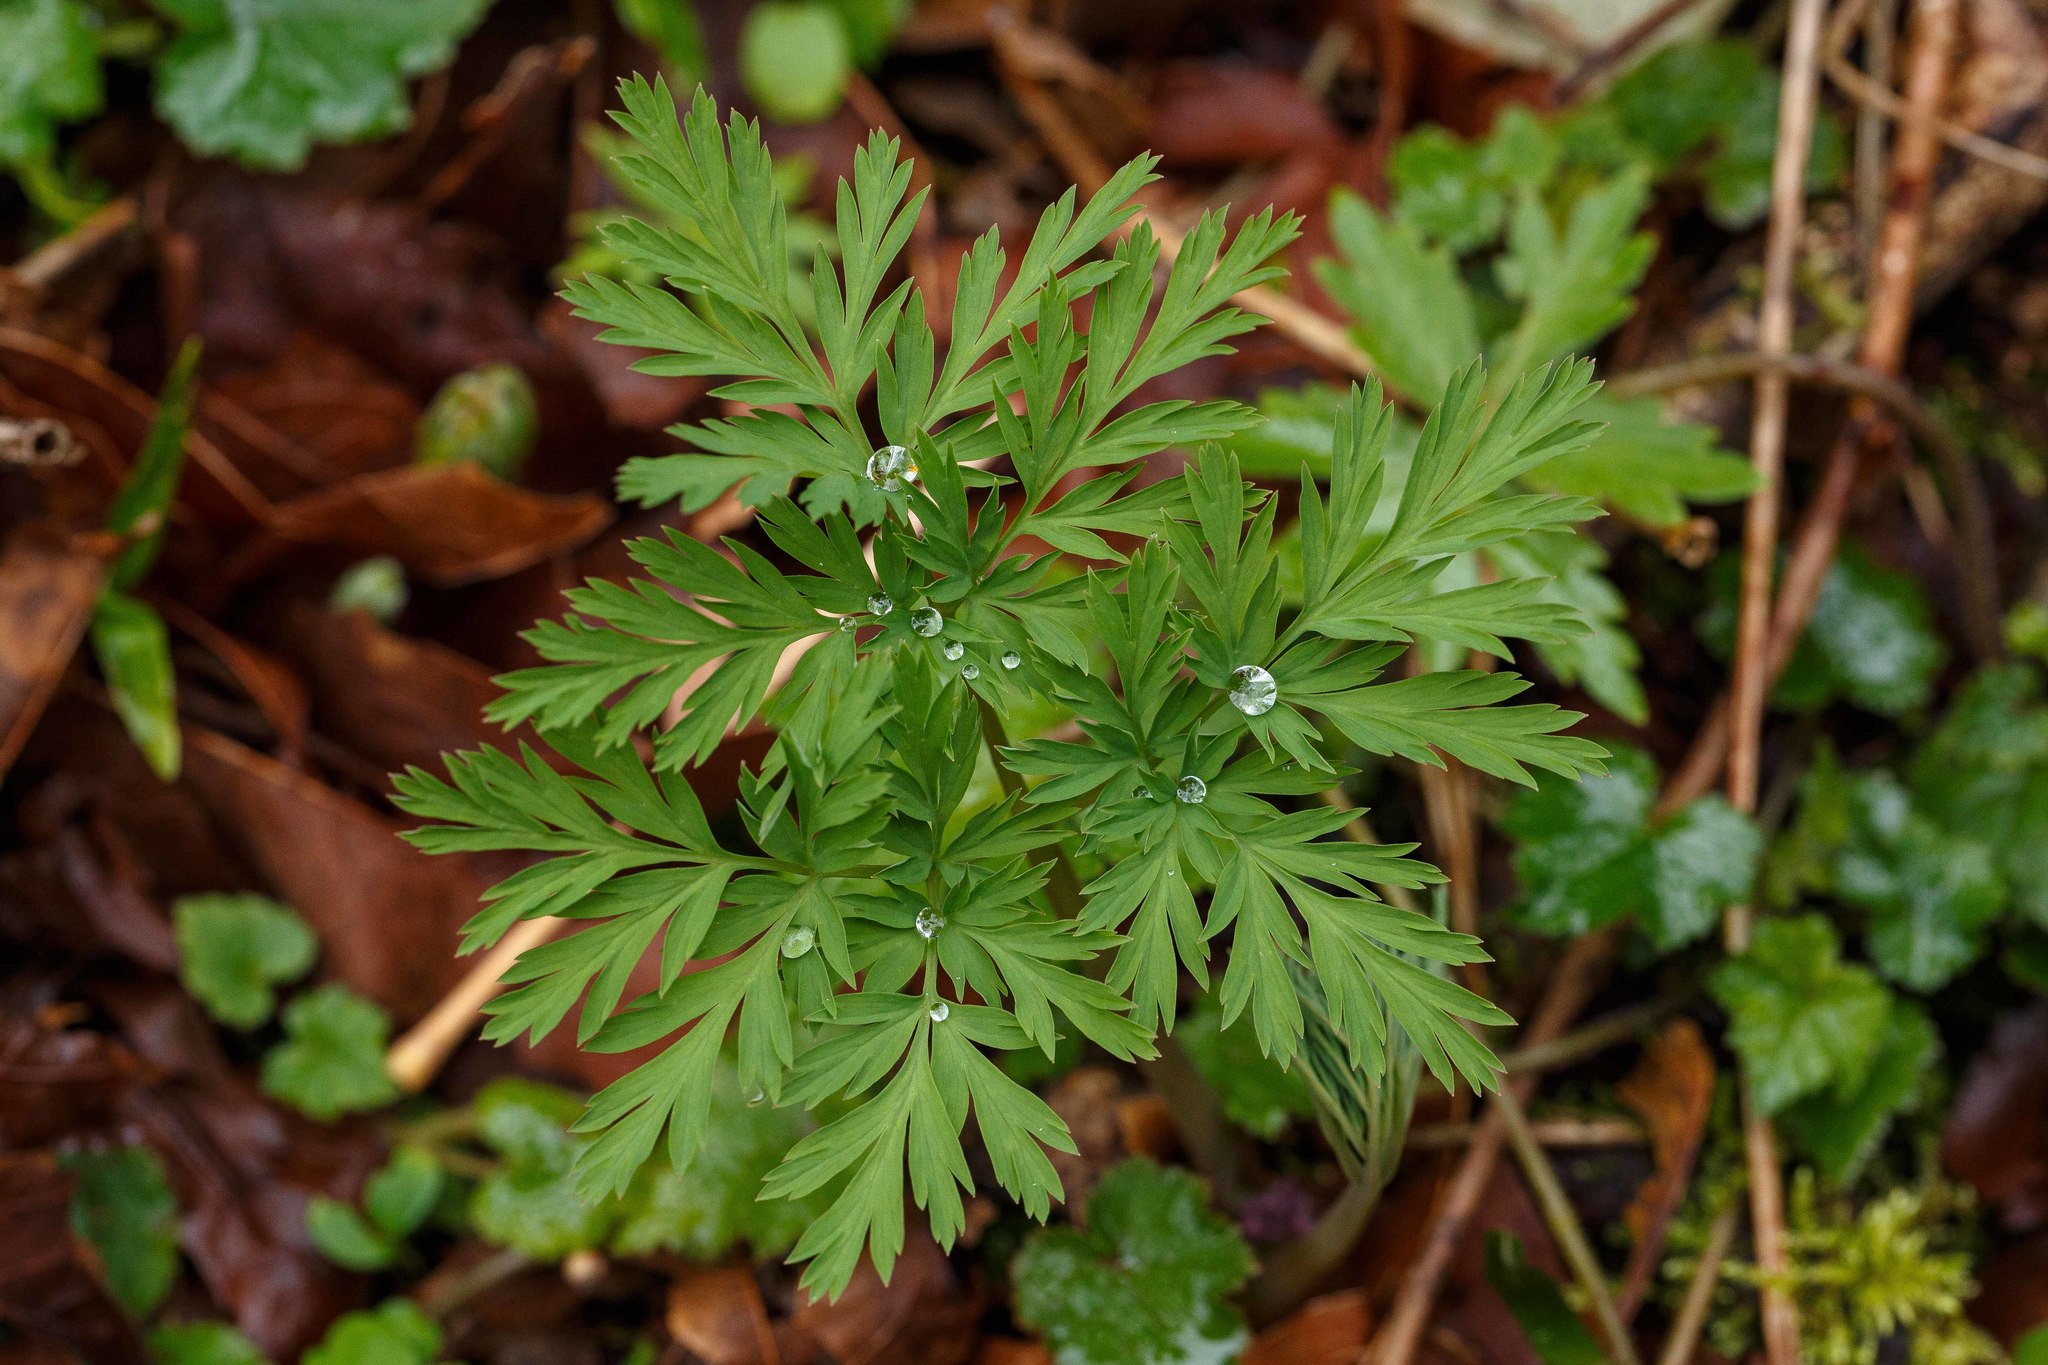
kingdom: Plantae
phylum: Tracheophyta
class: Magnoliopsida
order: Ranunculales
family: Papaveraceae
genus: Dicentra
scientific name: Dicentra formosa
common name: Bleeding-heart
